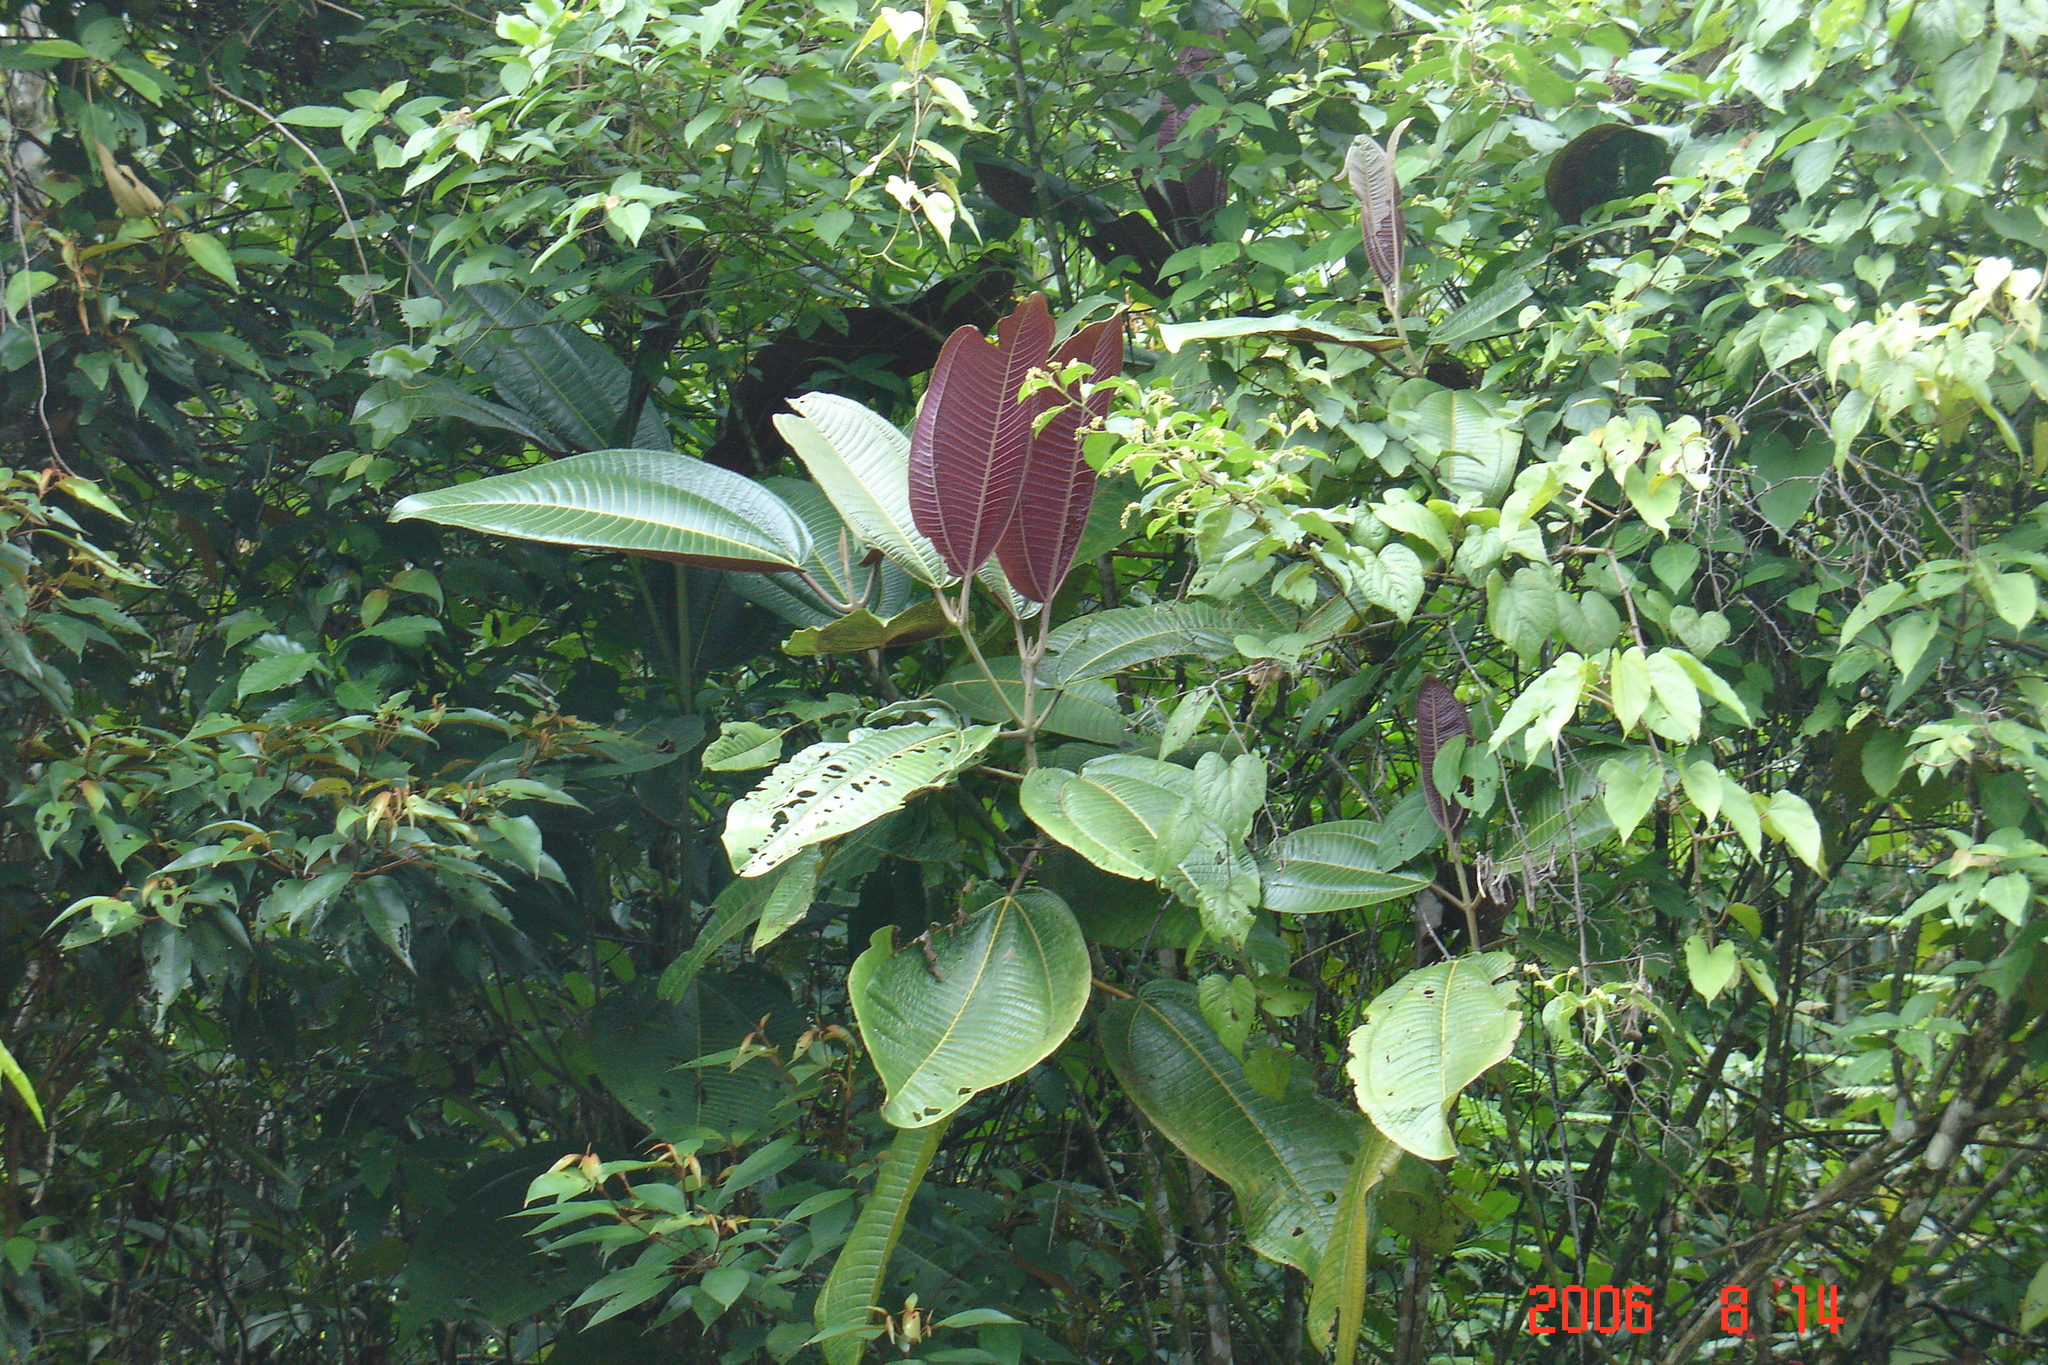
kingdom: Plantae
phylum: Tracheophyta
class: Magnoliopsida
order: Myrtales
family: Melastomataceae
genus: Miconia
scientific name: Miconia calvescens
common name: Purple plague
